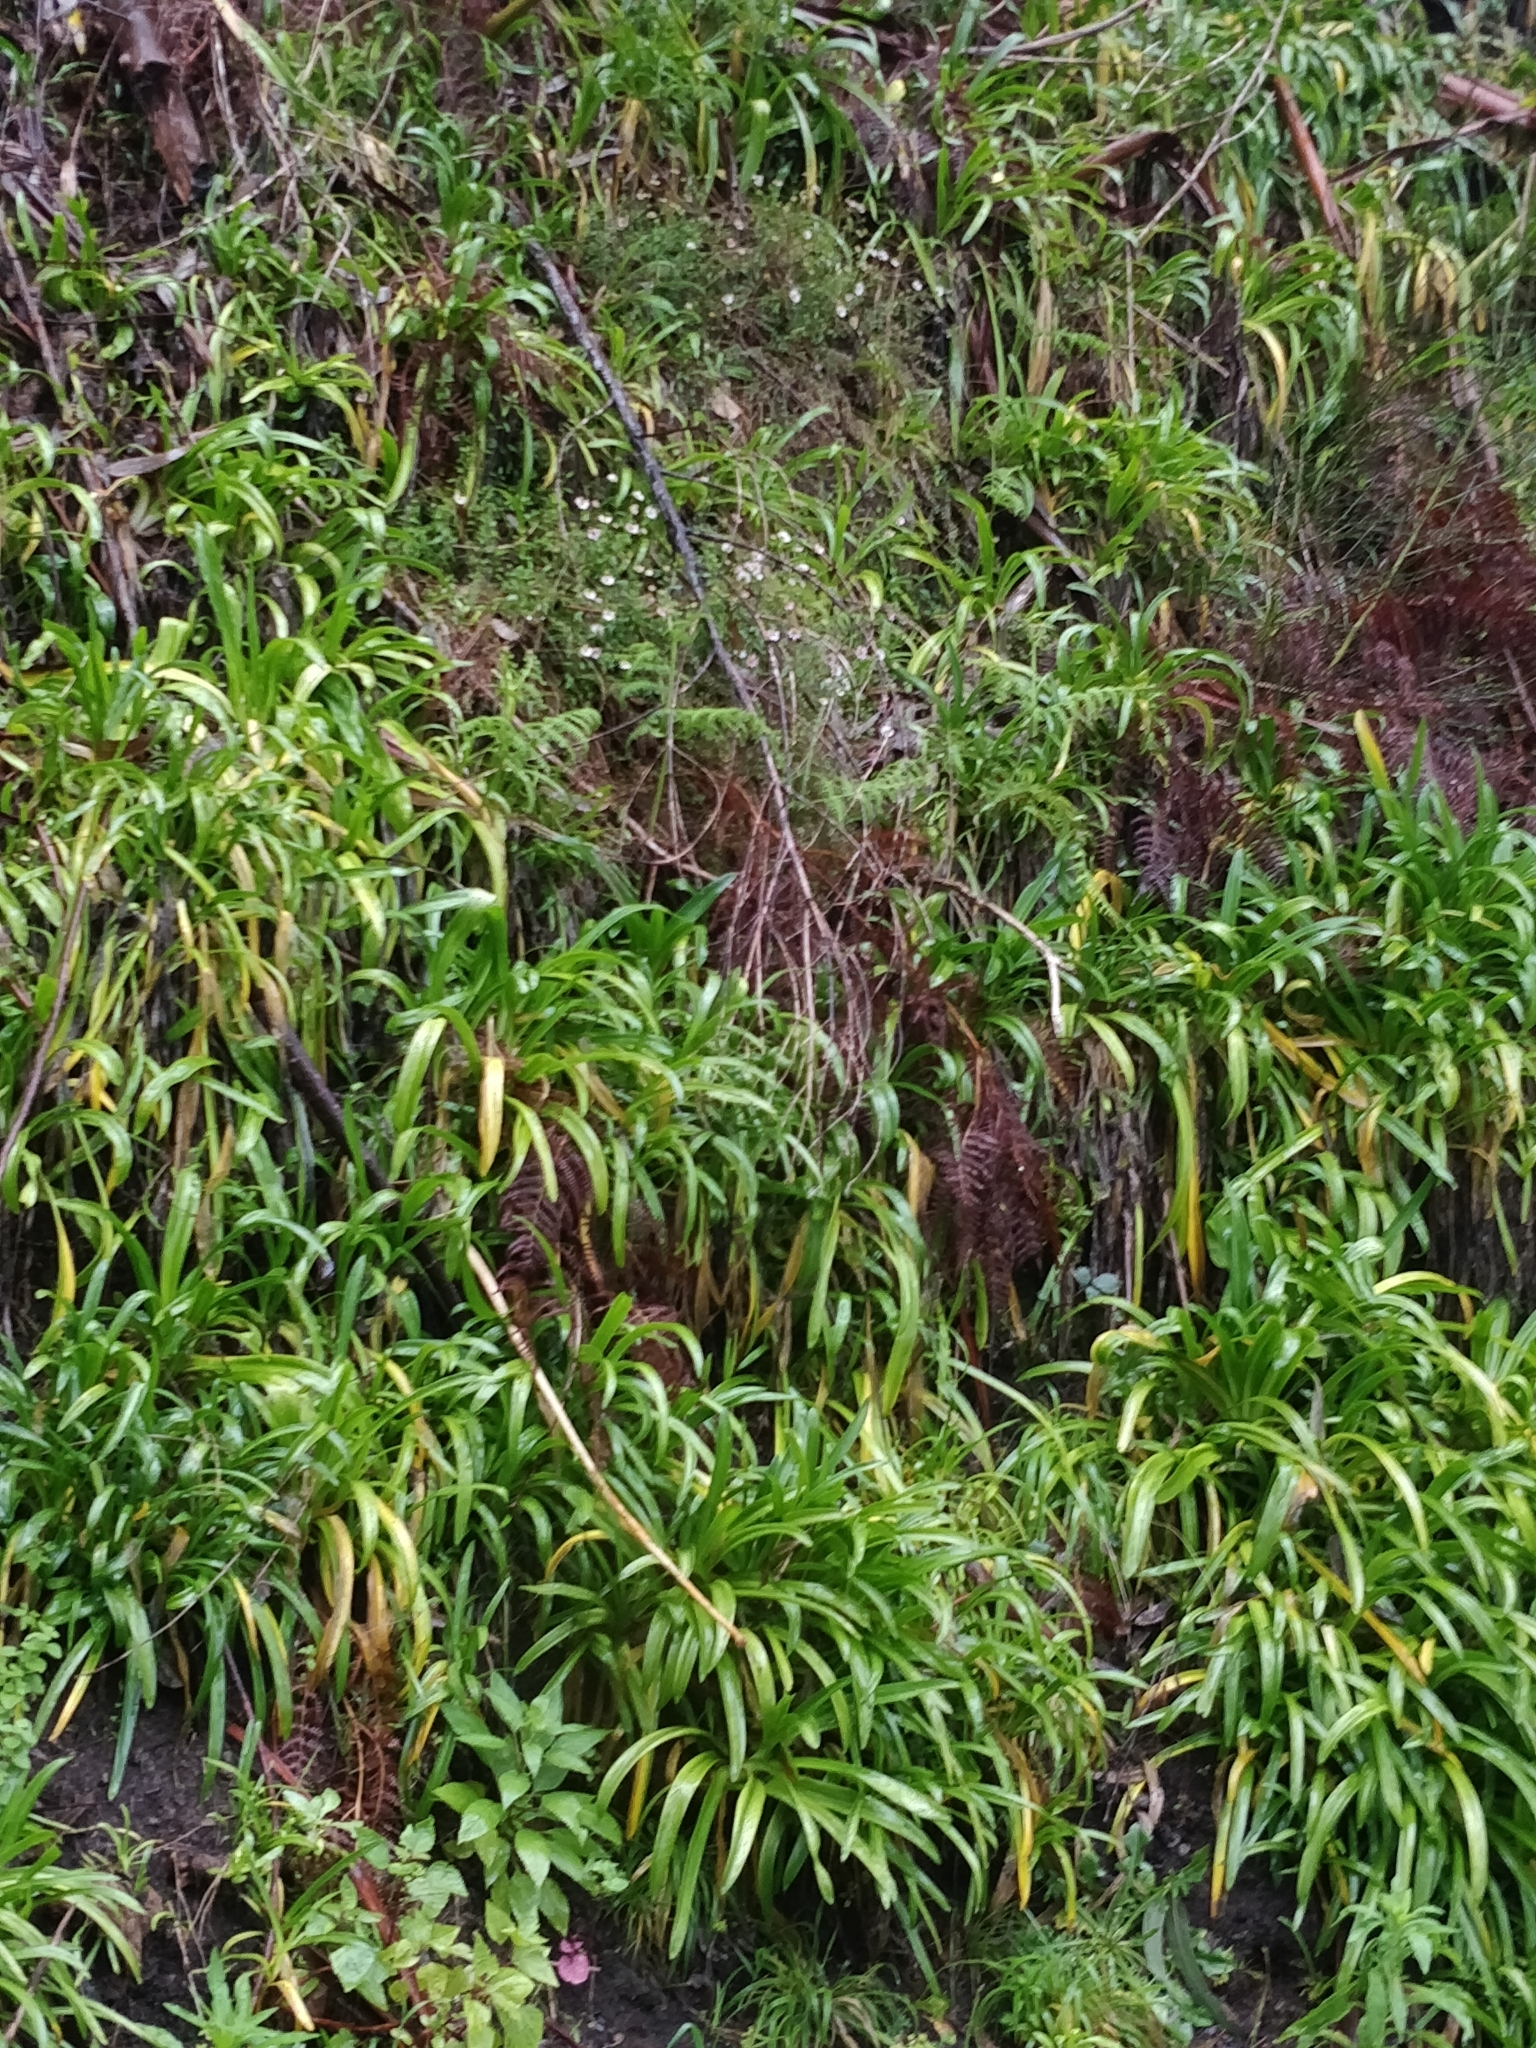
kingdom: Plantae
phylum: Tracheophyta
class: Liliopsida
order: Asparagales
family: Amaryllidaceae
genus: Agapanthus
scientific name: Agapanthus praecox
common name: African-lily
